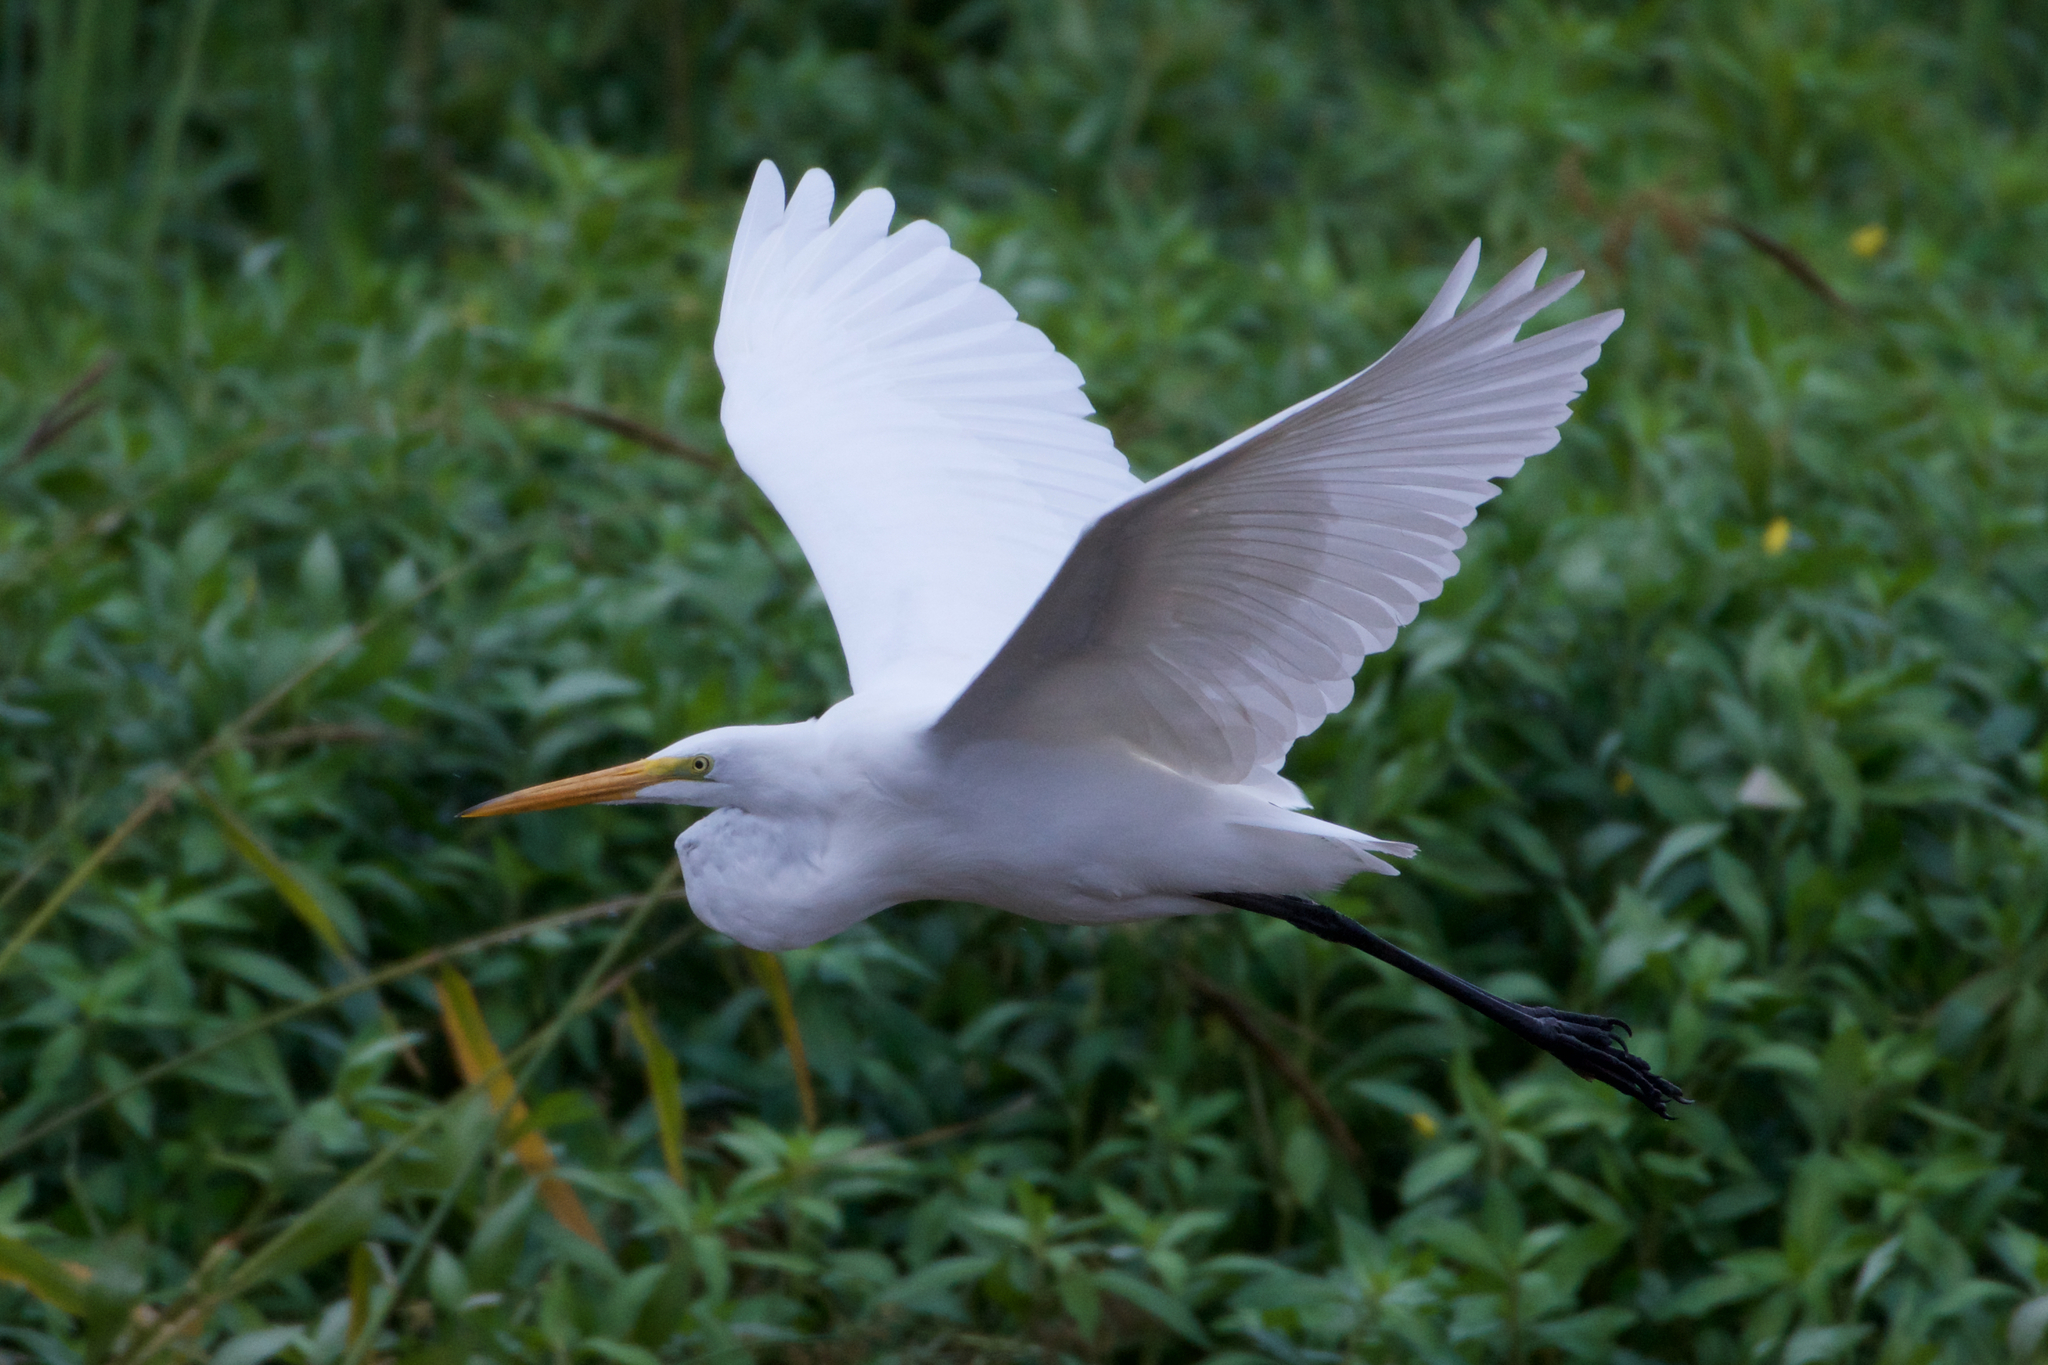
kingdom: Animalia
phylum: Chordata
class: Aves
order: Pelecaniformes
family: Ardeidae
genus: Ardea
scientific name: Ardea alba
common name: Great egret
